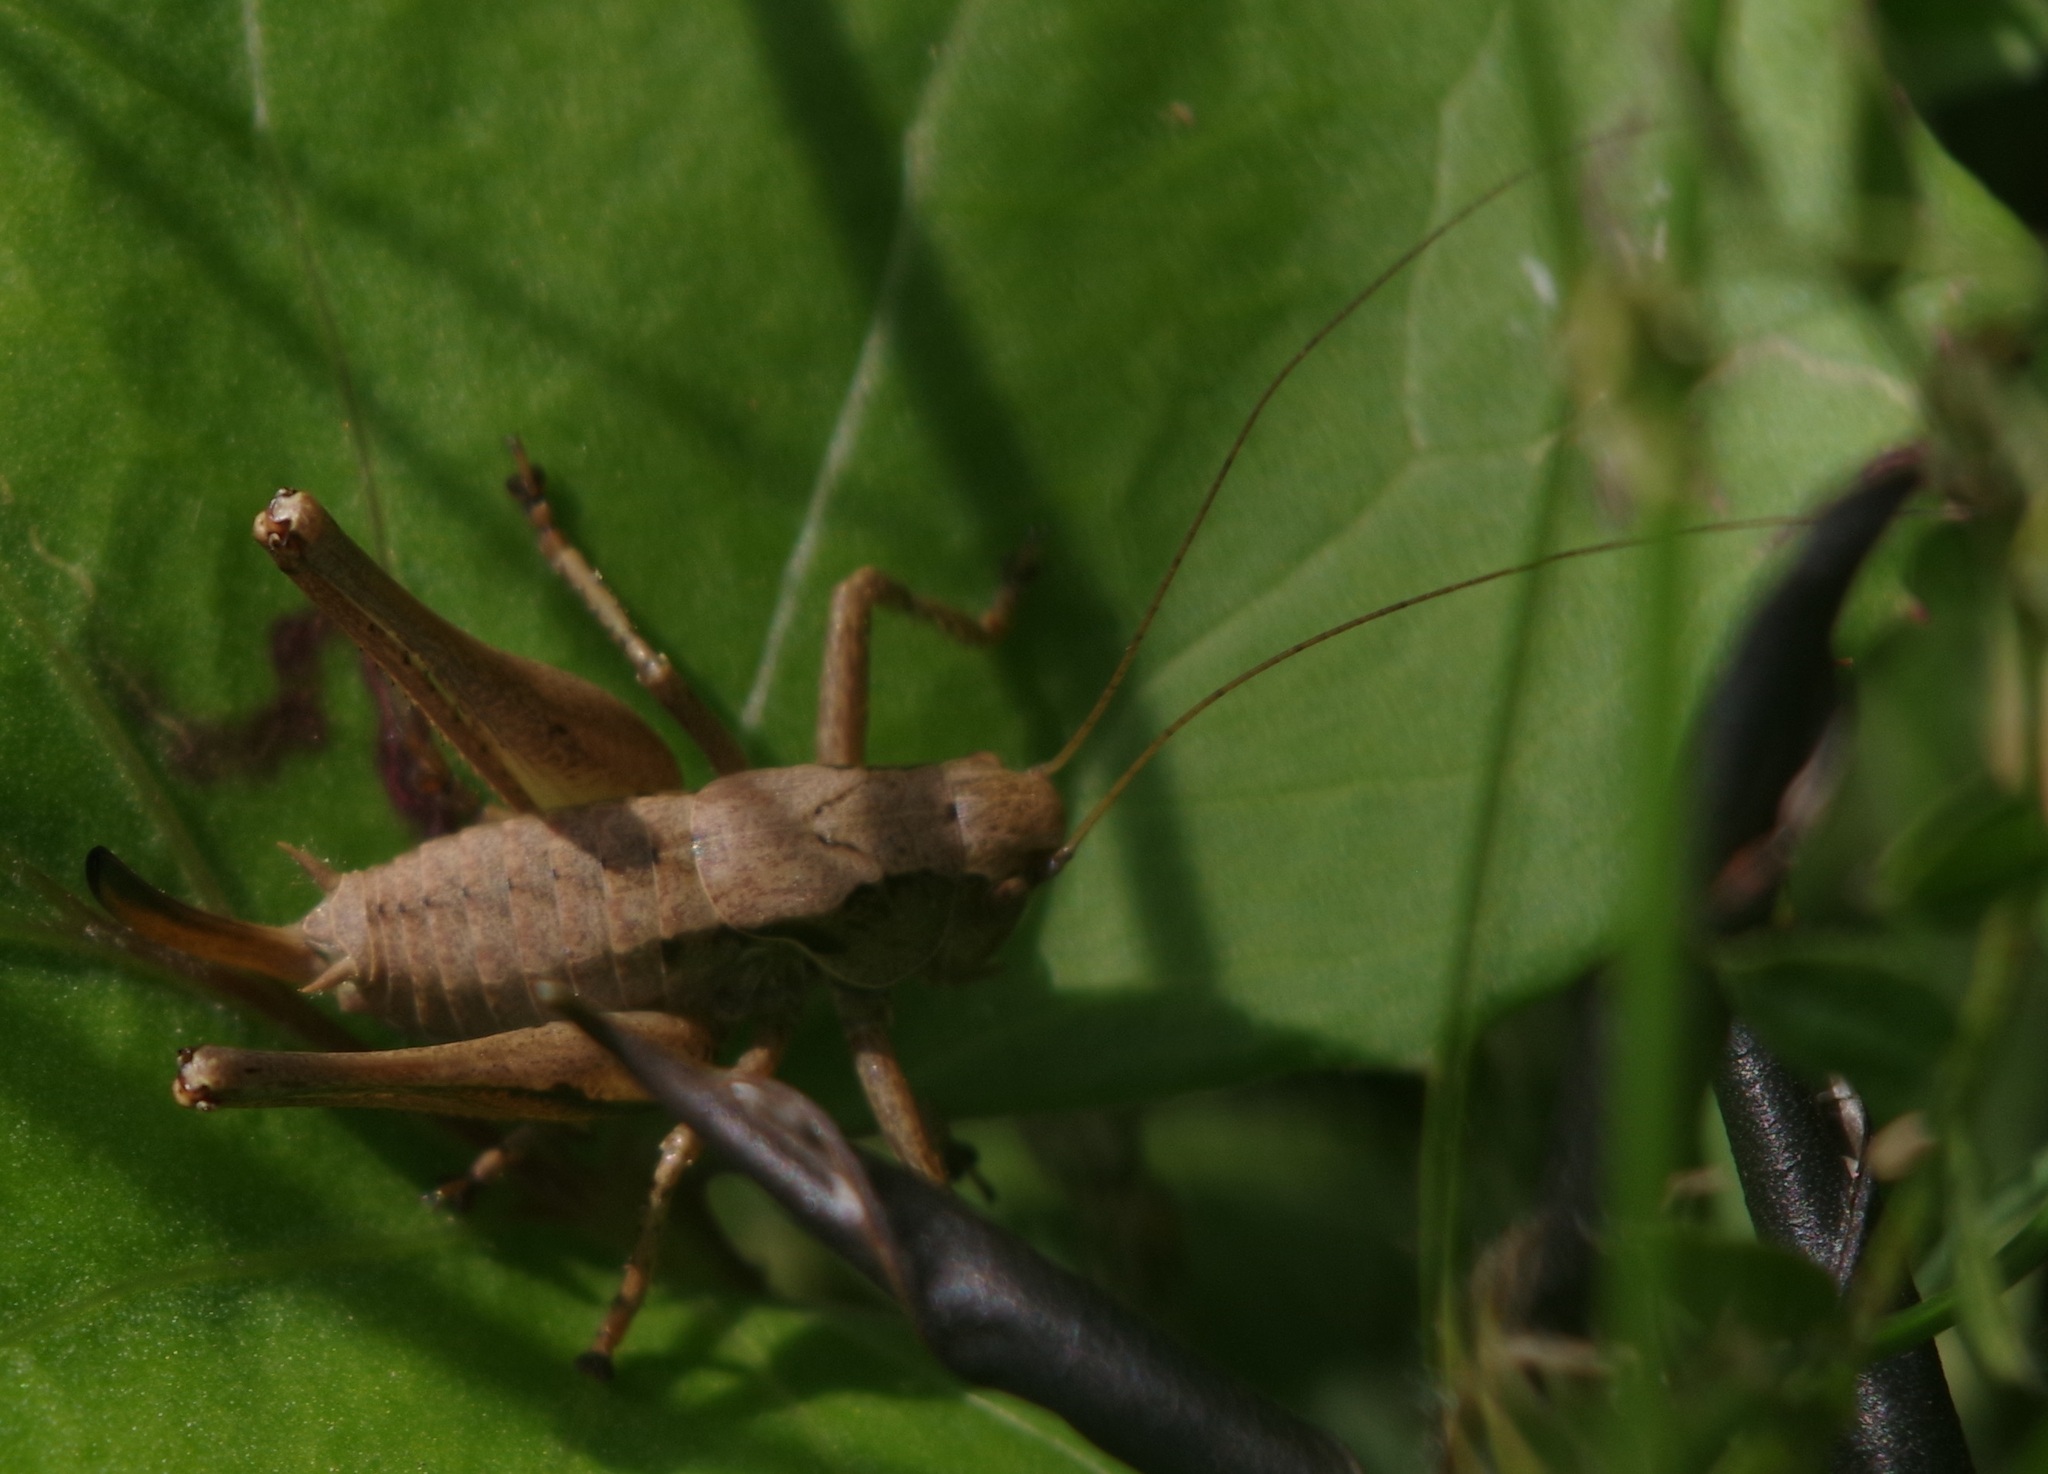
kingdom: Animalia
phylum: Arthropoda
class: Insecta
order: Orthoptera
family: Tettigoniidae
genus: Pholidoptera
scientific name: Pholidoptera griseoaptera
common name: Dark bush-cricket
